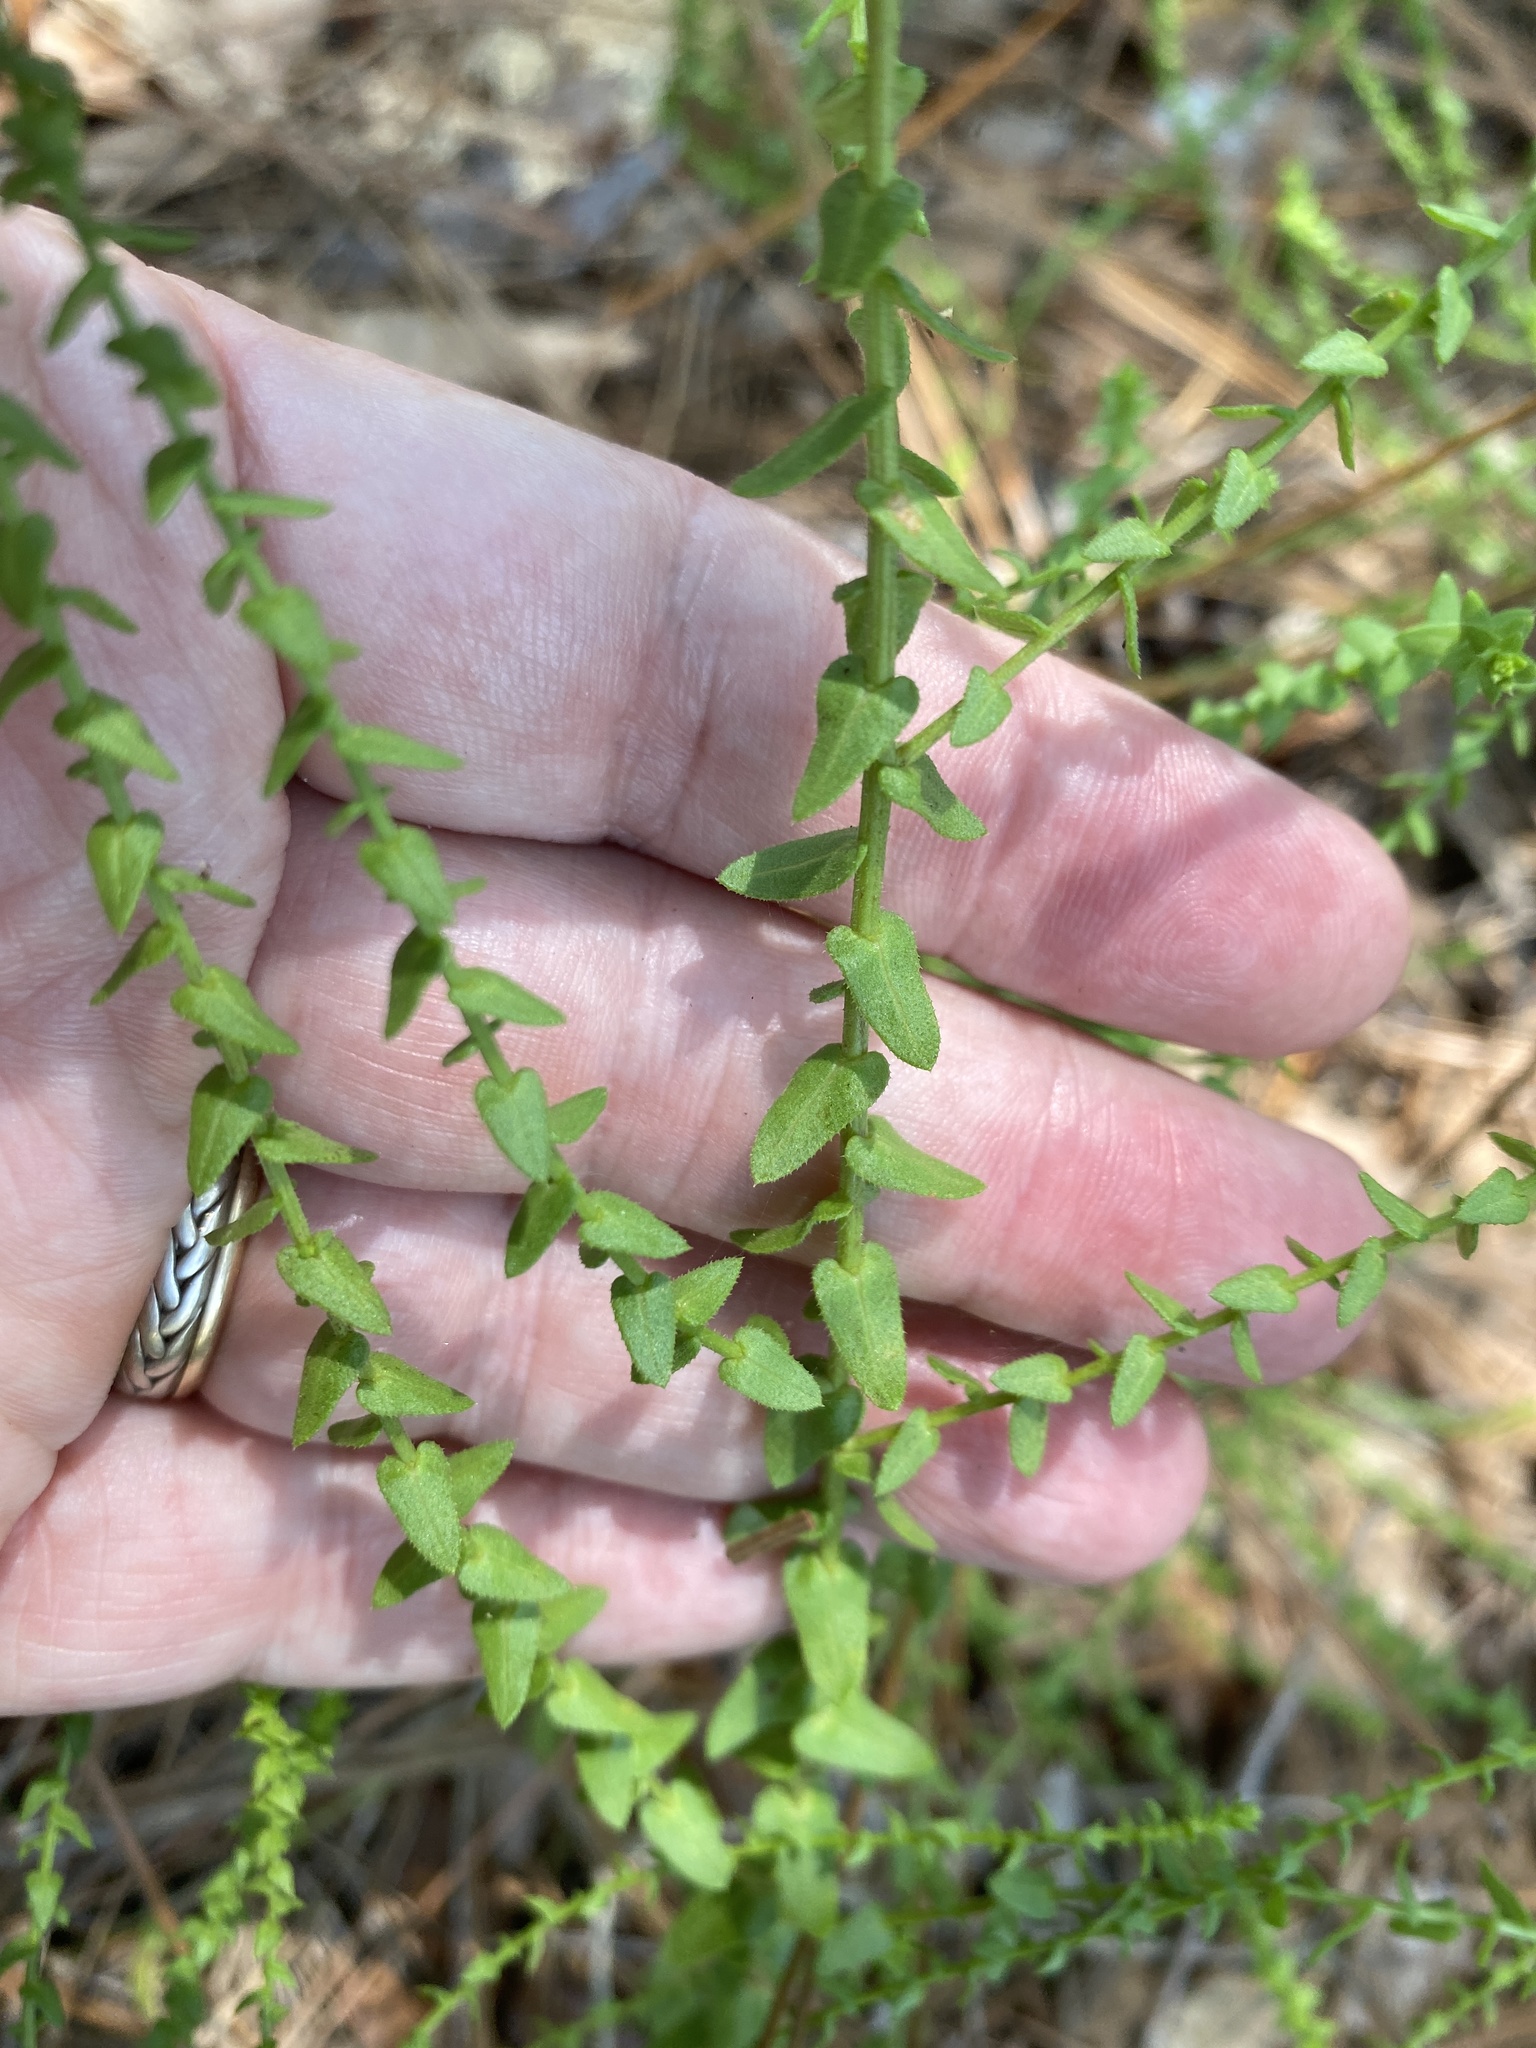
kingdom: Plantae
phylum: Tracheophyta
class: Magnoliopsida
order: Asterales
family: Asteraceae
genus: Symphyotrichum
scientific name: Symphyotrichum walteri
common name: Walter's aster
